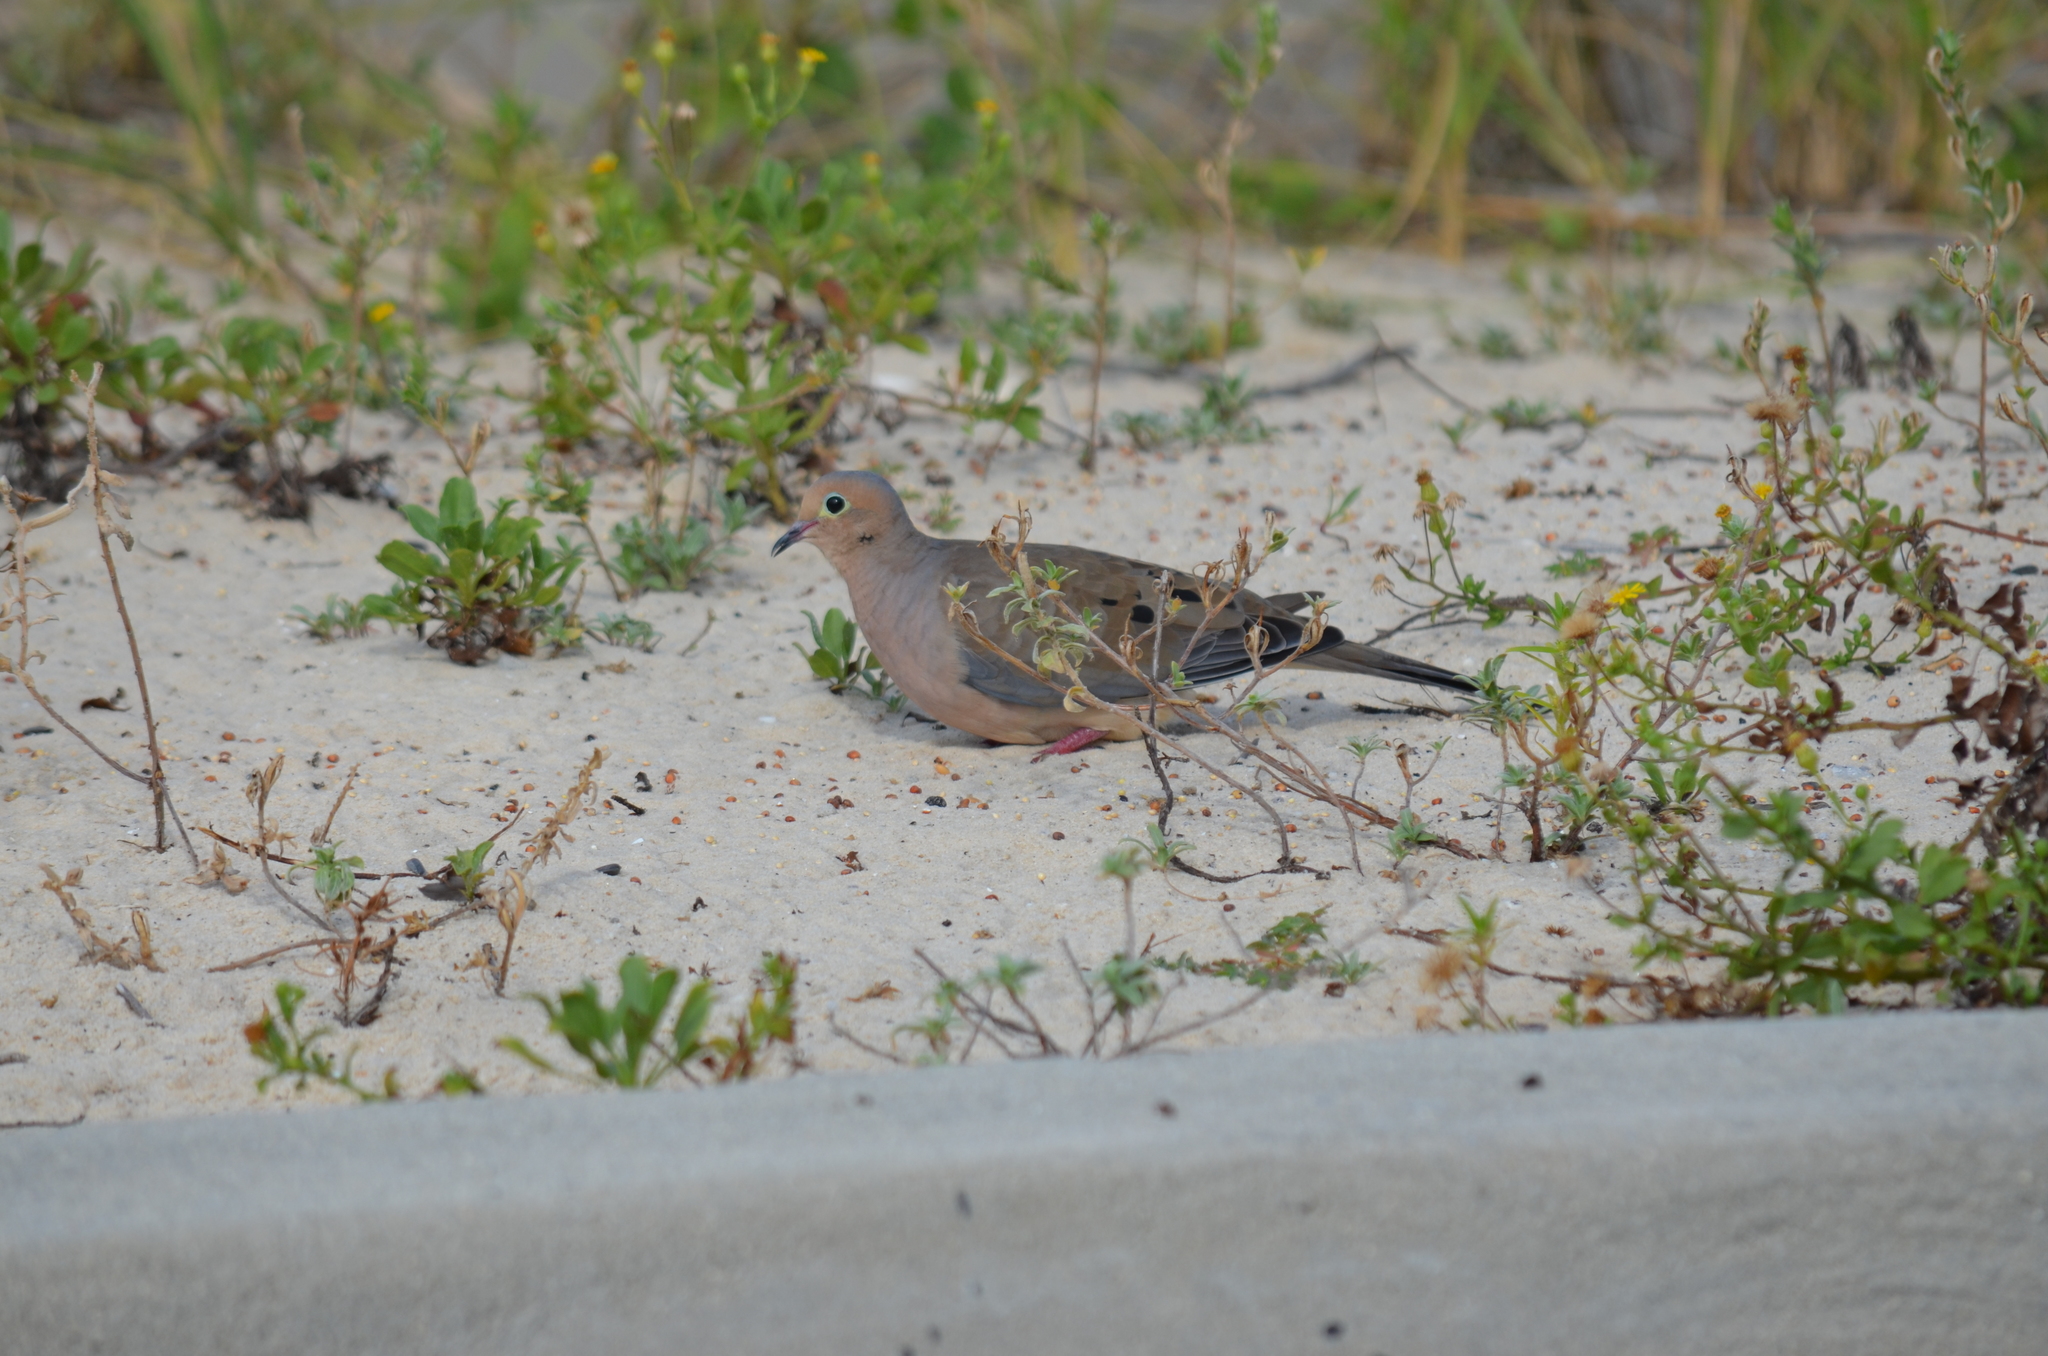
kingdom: Animalia
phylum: Chordata
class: Aves
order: Columbiformes
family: Columbidae
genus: Zenaida
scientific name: Zenaida macroura
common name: Mourning dove
